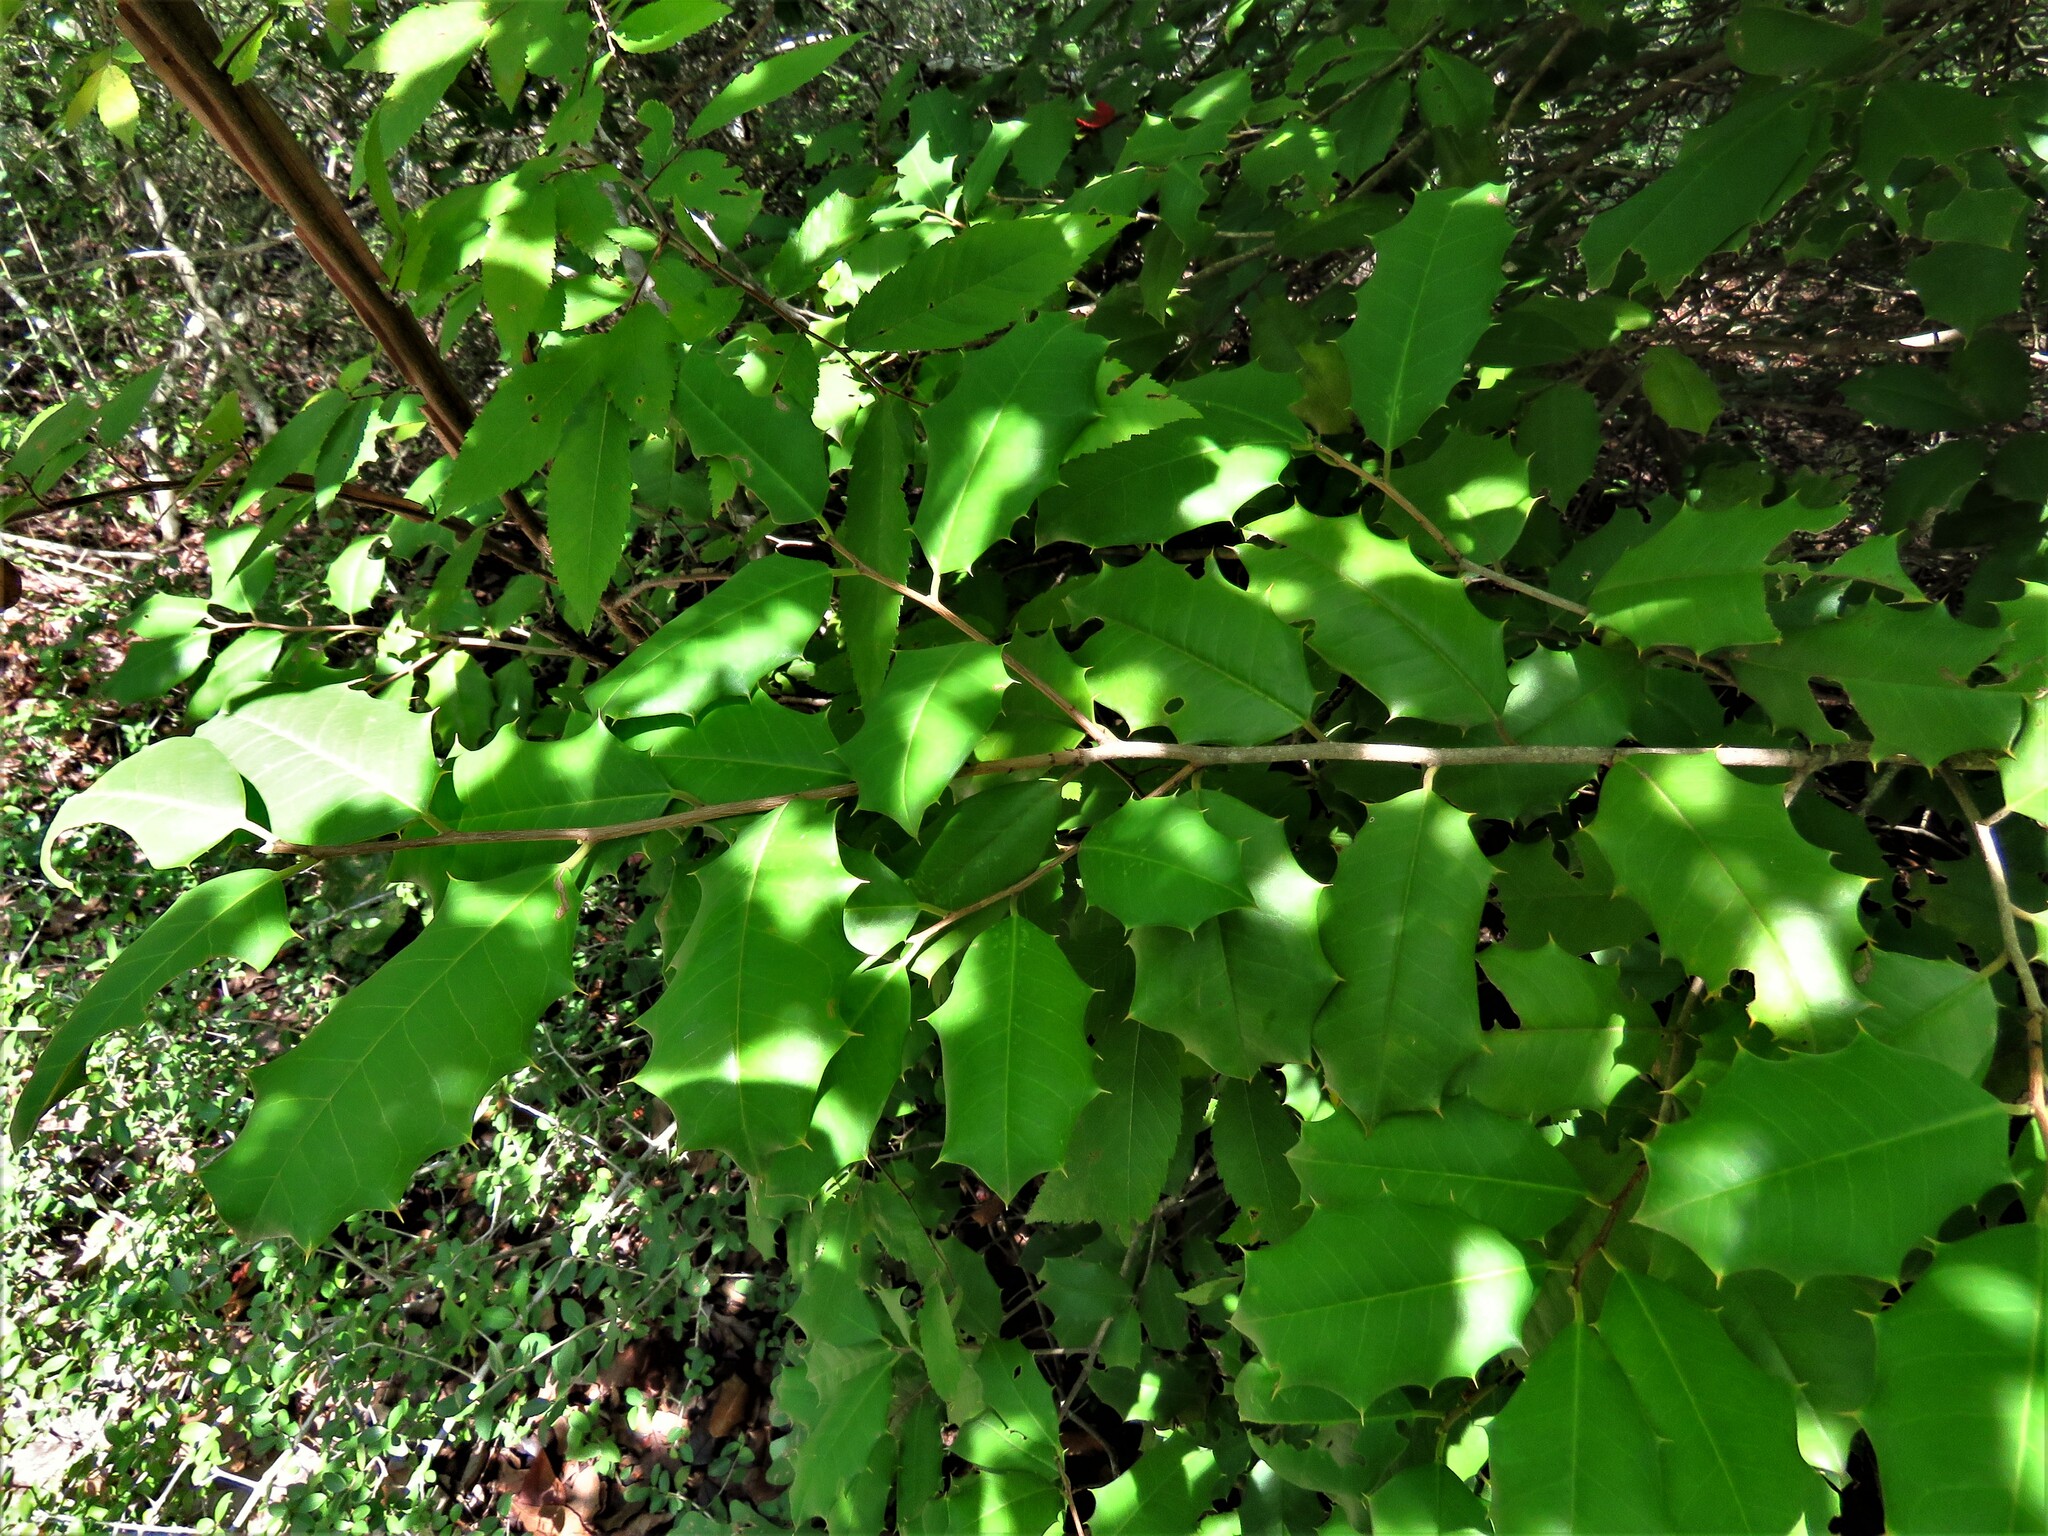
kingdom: Plantae
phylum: Tracheophyta
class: Magnoliopsida
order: Aquifoliales
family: Aquifoliaceae
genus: Ilex
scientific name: Ilex opaca
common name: American holly
